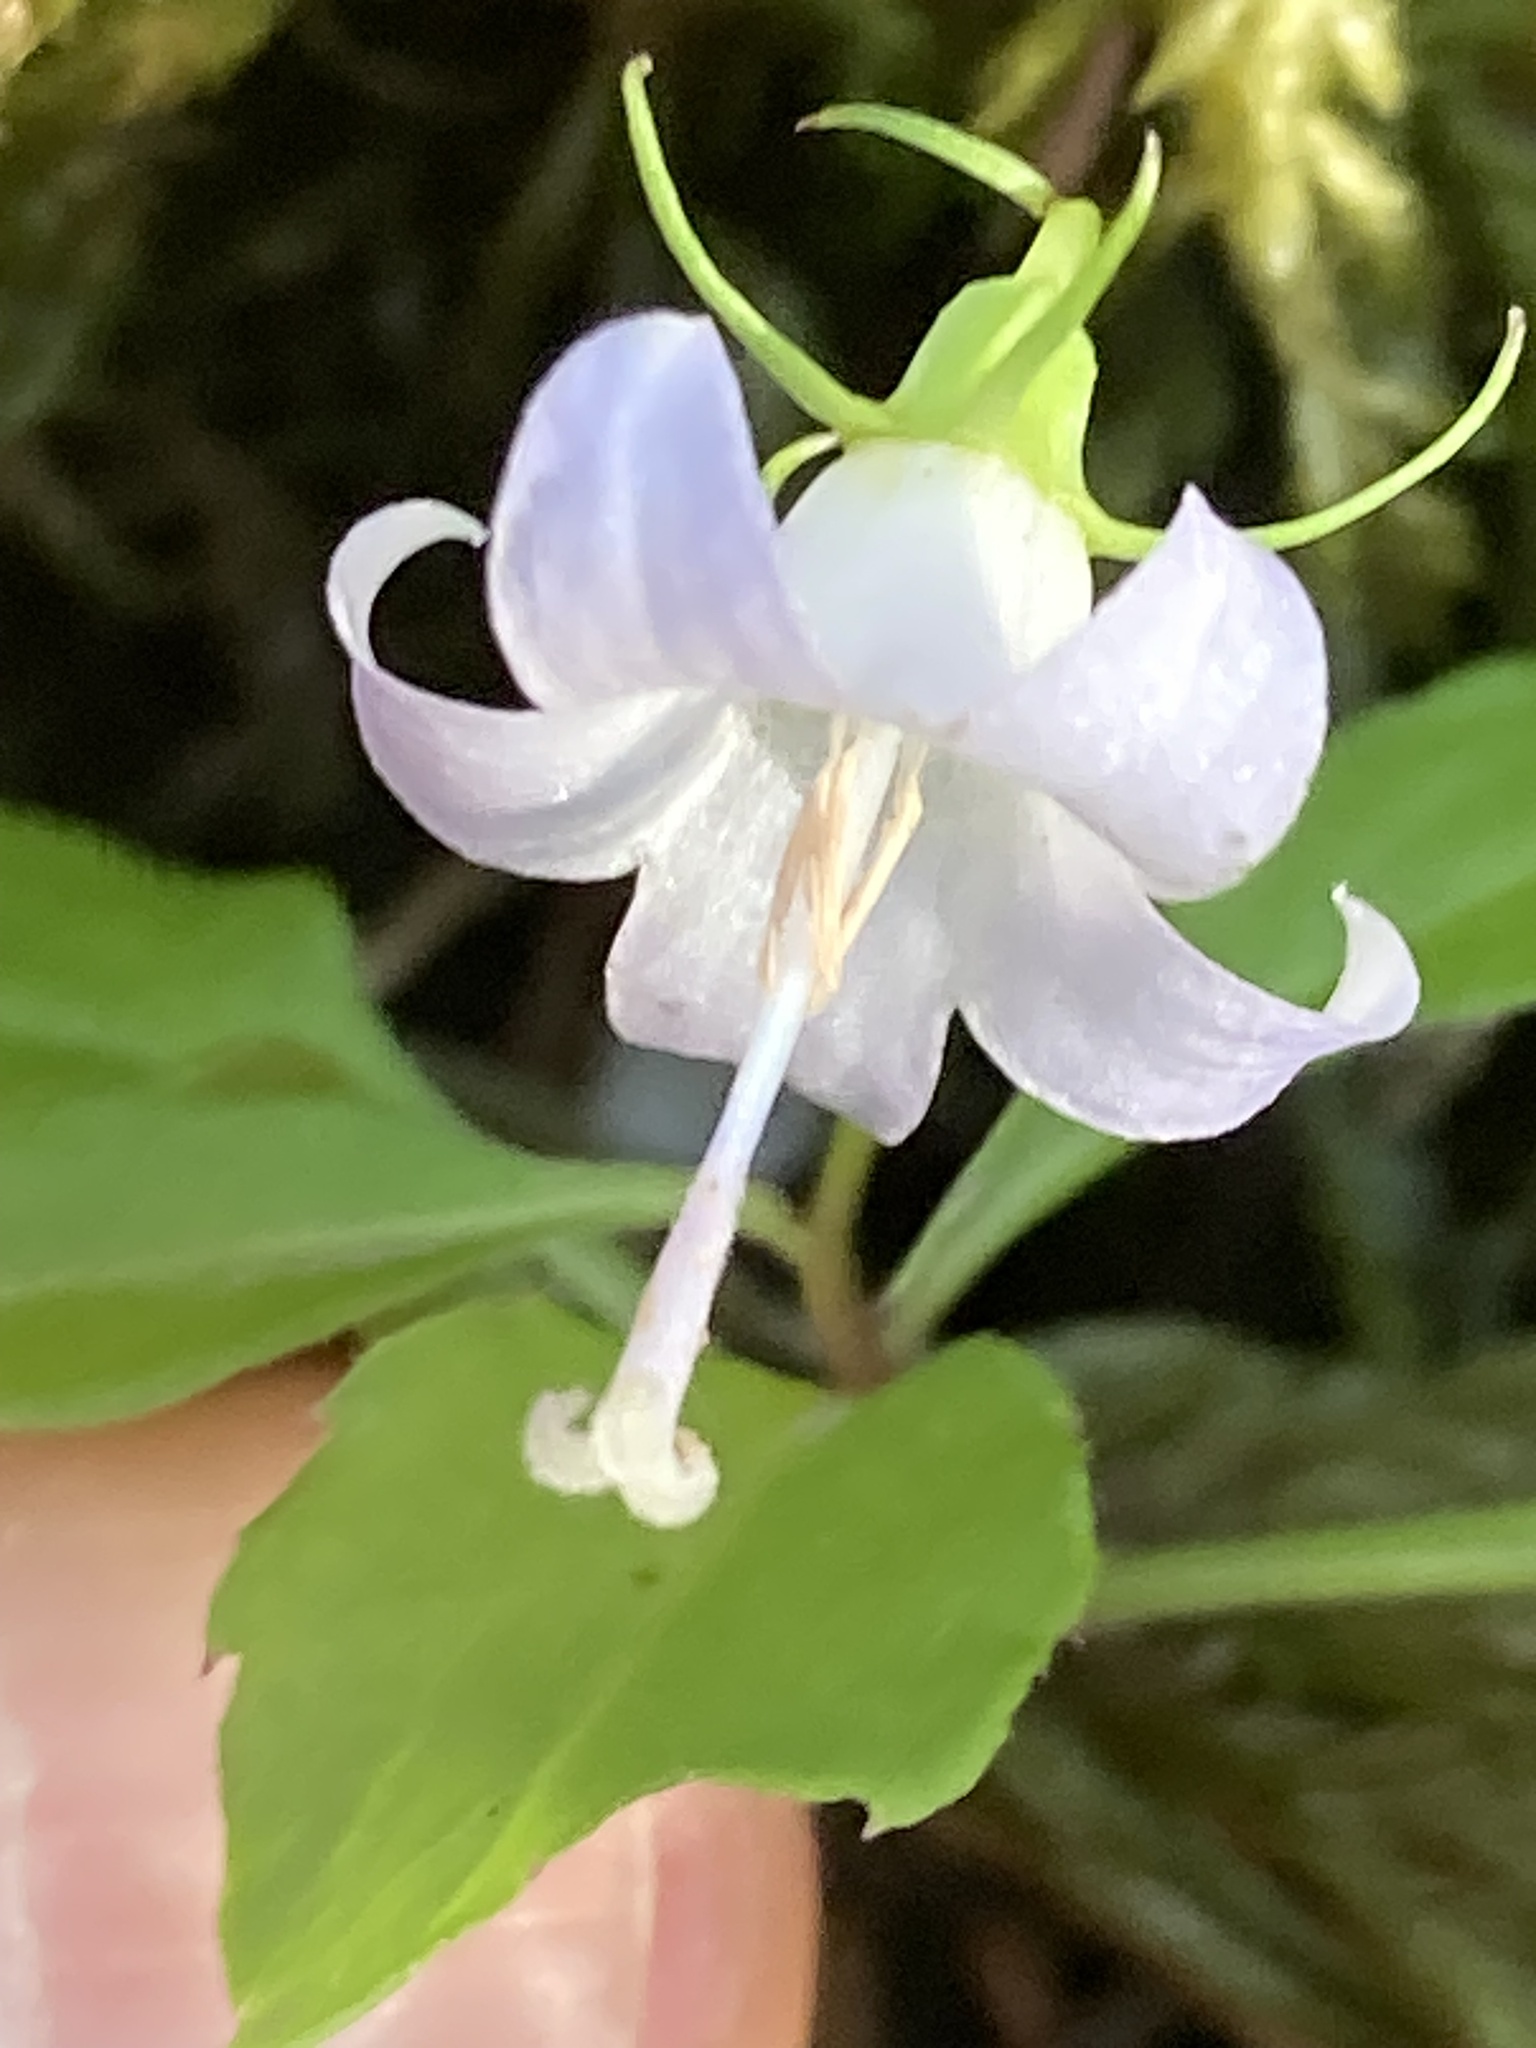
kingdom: Plantae
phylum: Tracheophyta
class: Magnoliopsida
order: Asterales
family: Campanulaceae
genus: Campanula
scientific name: Campanula scouleri
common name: Scouler's harebell
